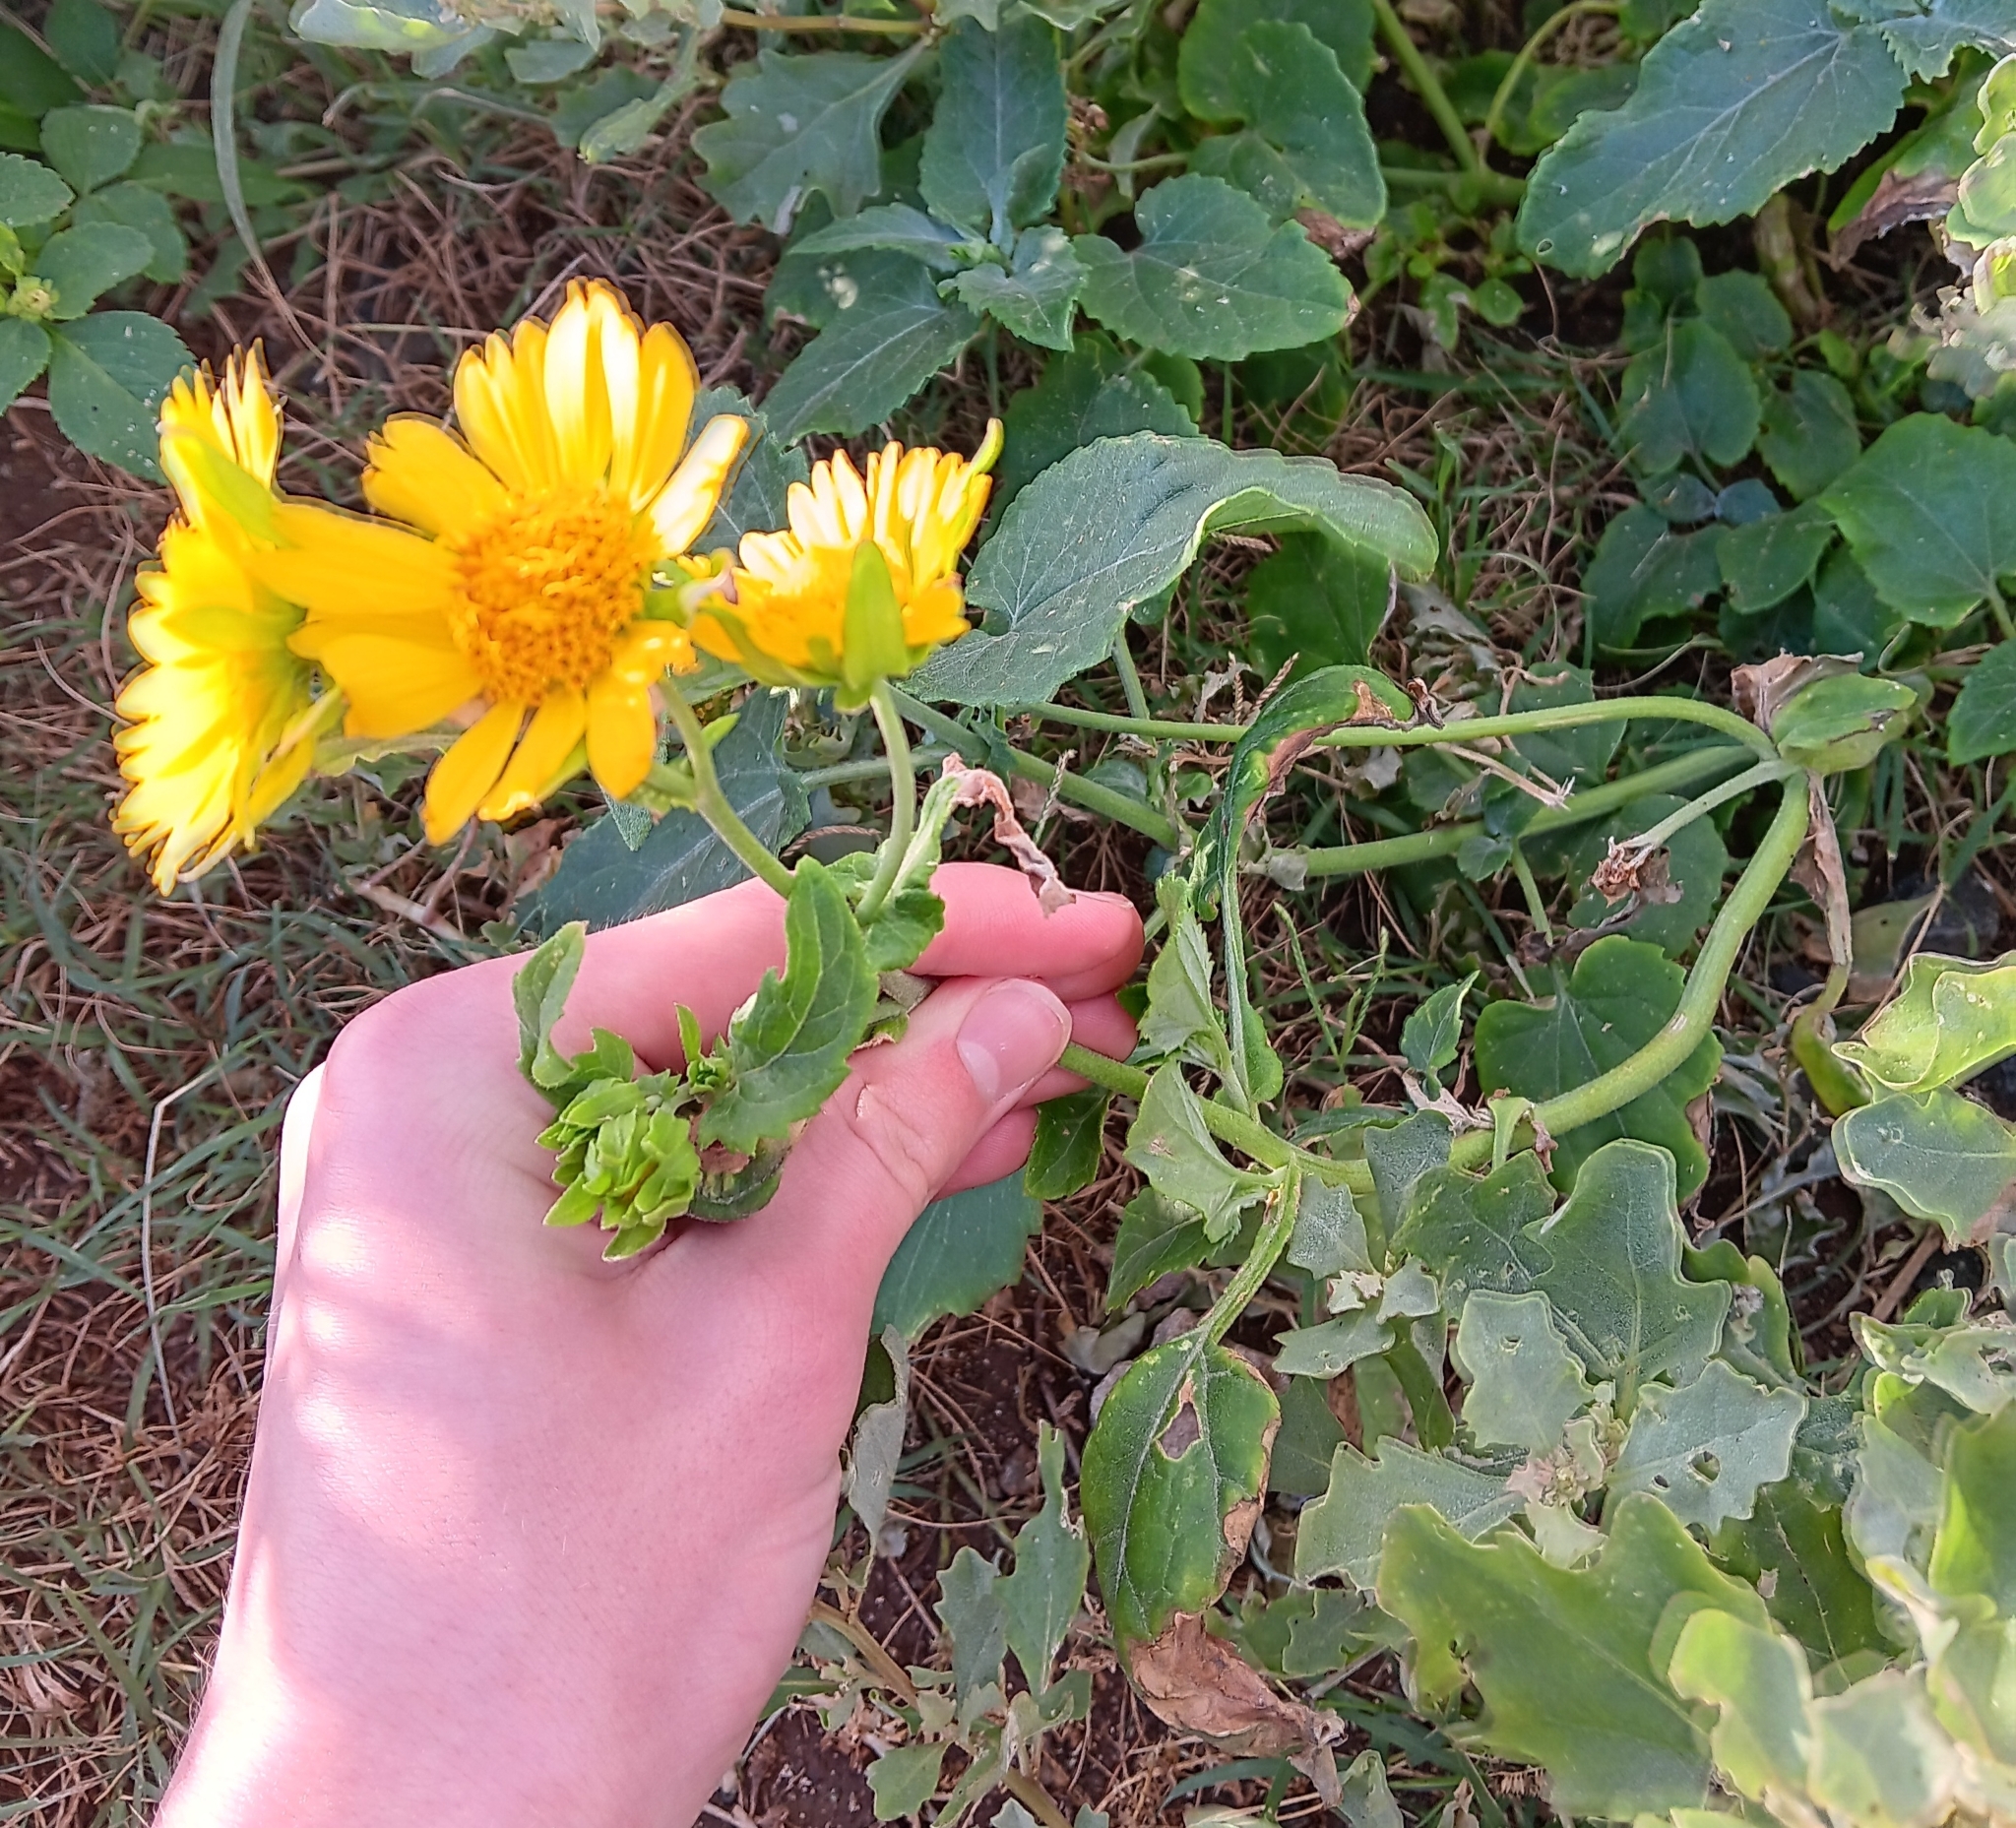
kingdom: Plantae
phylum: Tracheophyta
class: Magnoliopsida
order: Asterales
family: Asteraceae
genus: Verbesina
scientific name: Verbesina encelioides
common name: Golden crownbeard
